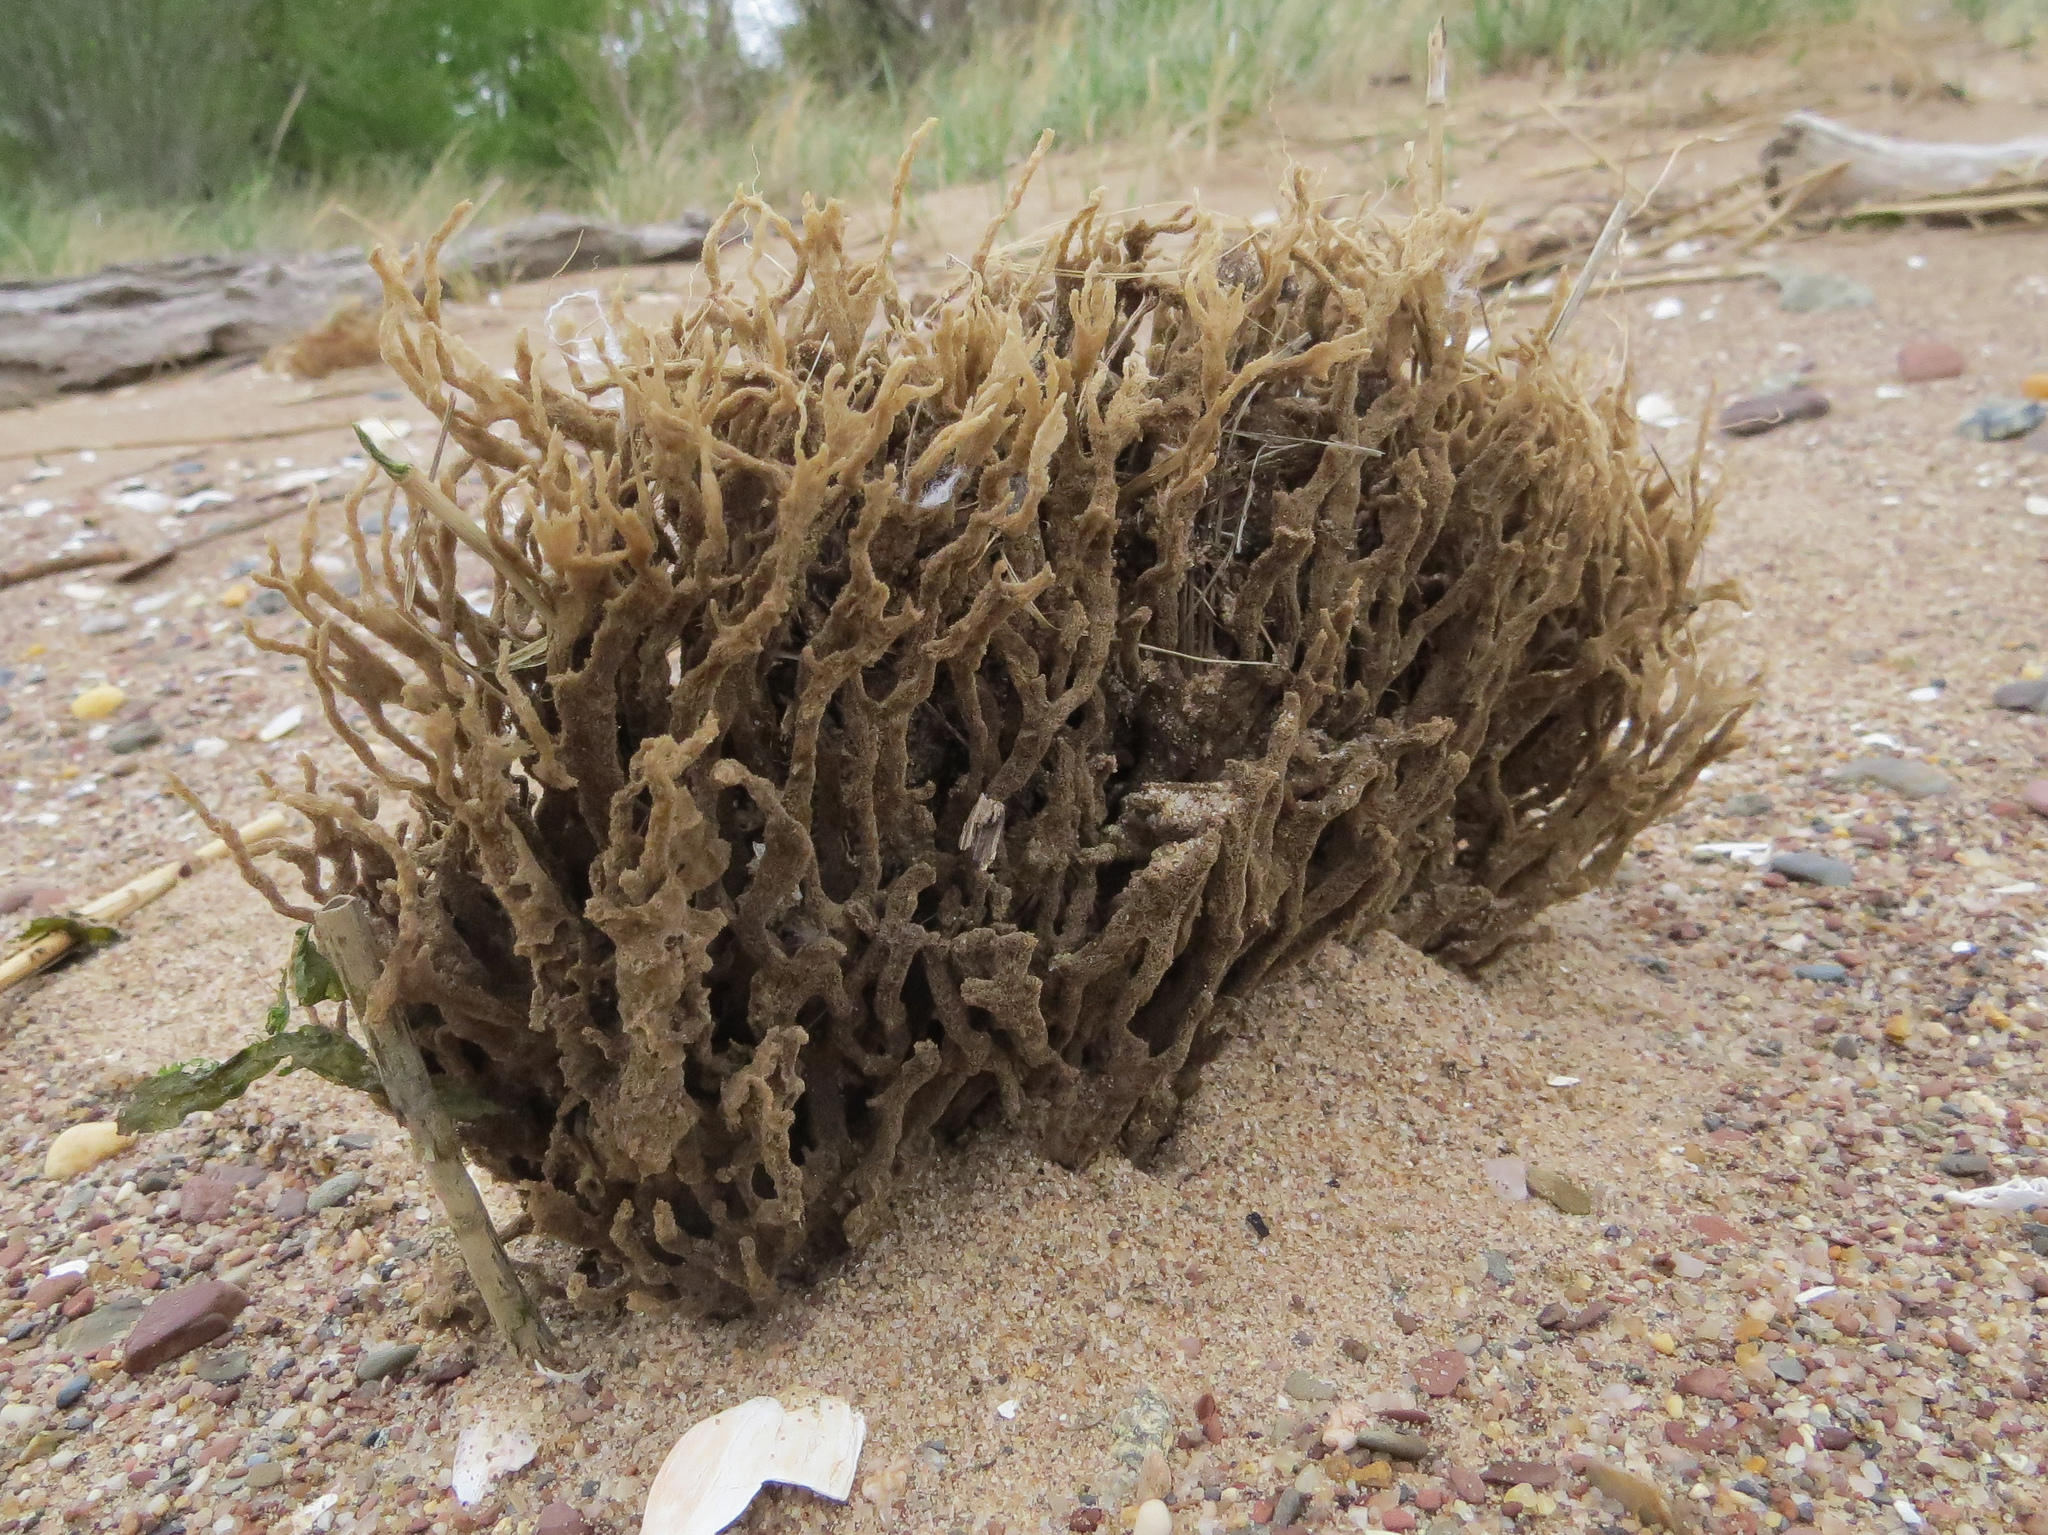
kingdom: Animalia
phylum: Porifera
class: Demospongiae
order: Poecilosclerida
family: Microcionidae
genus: Clathria
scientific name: Clathria prolifera
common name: Red beard sponge
